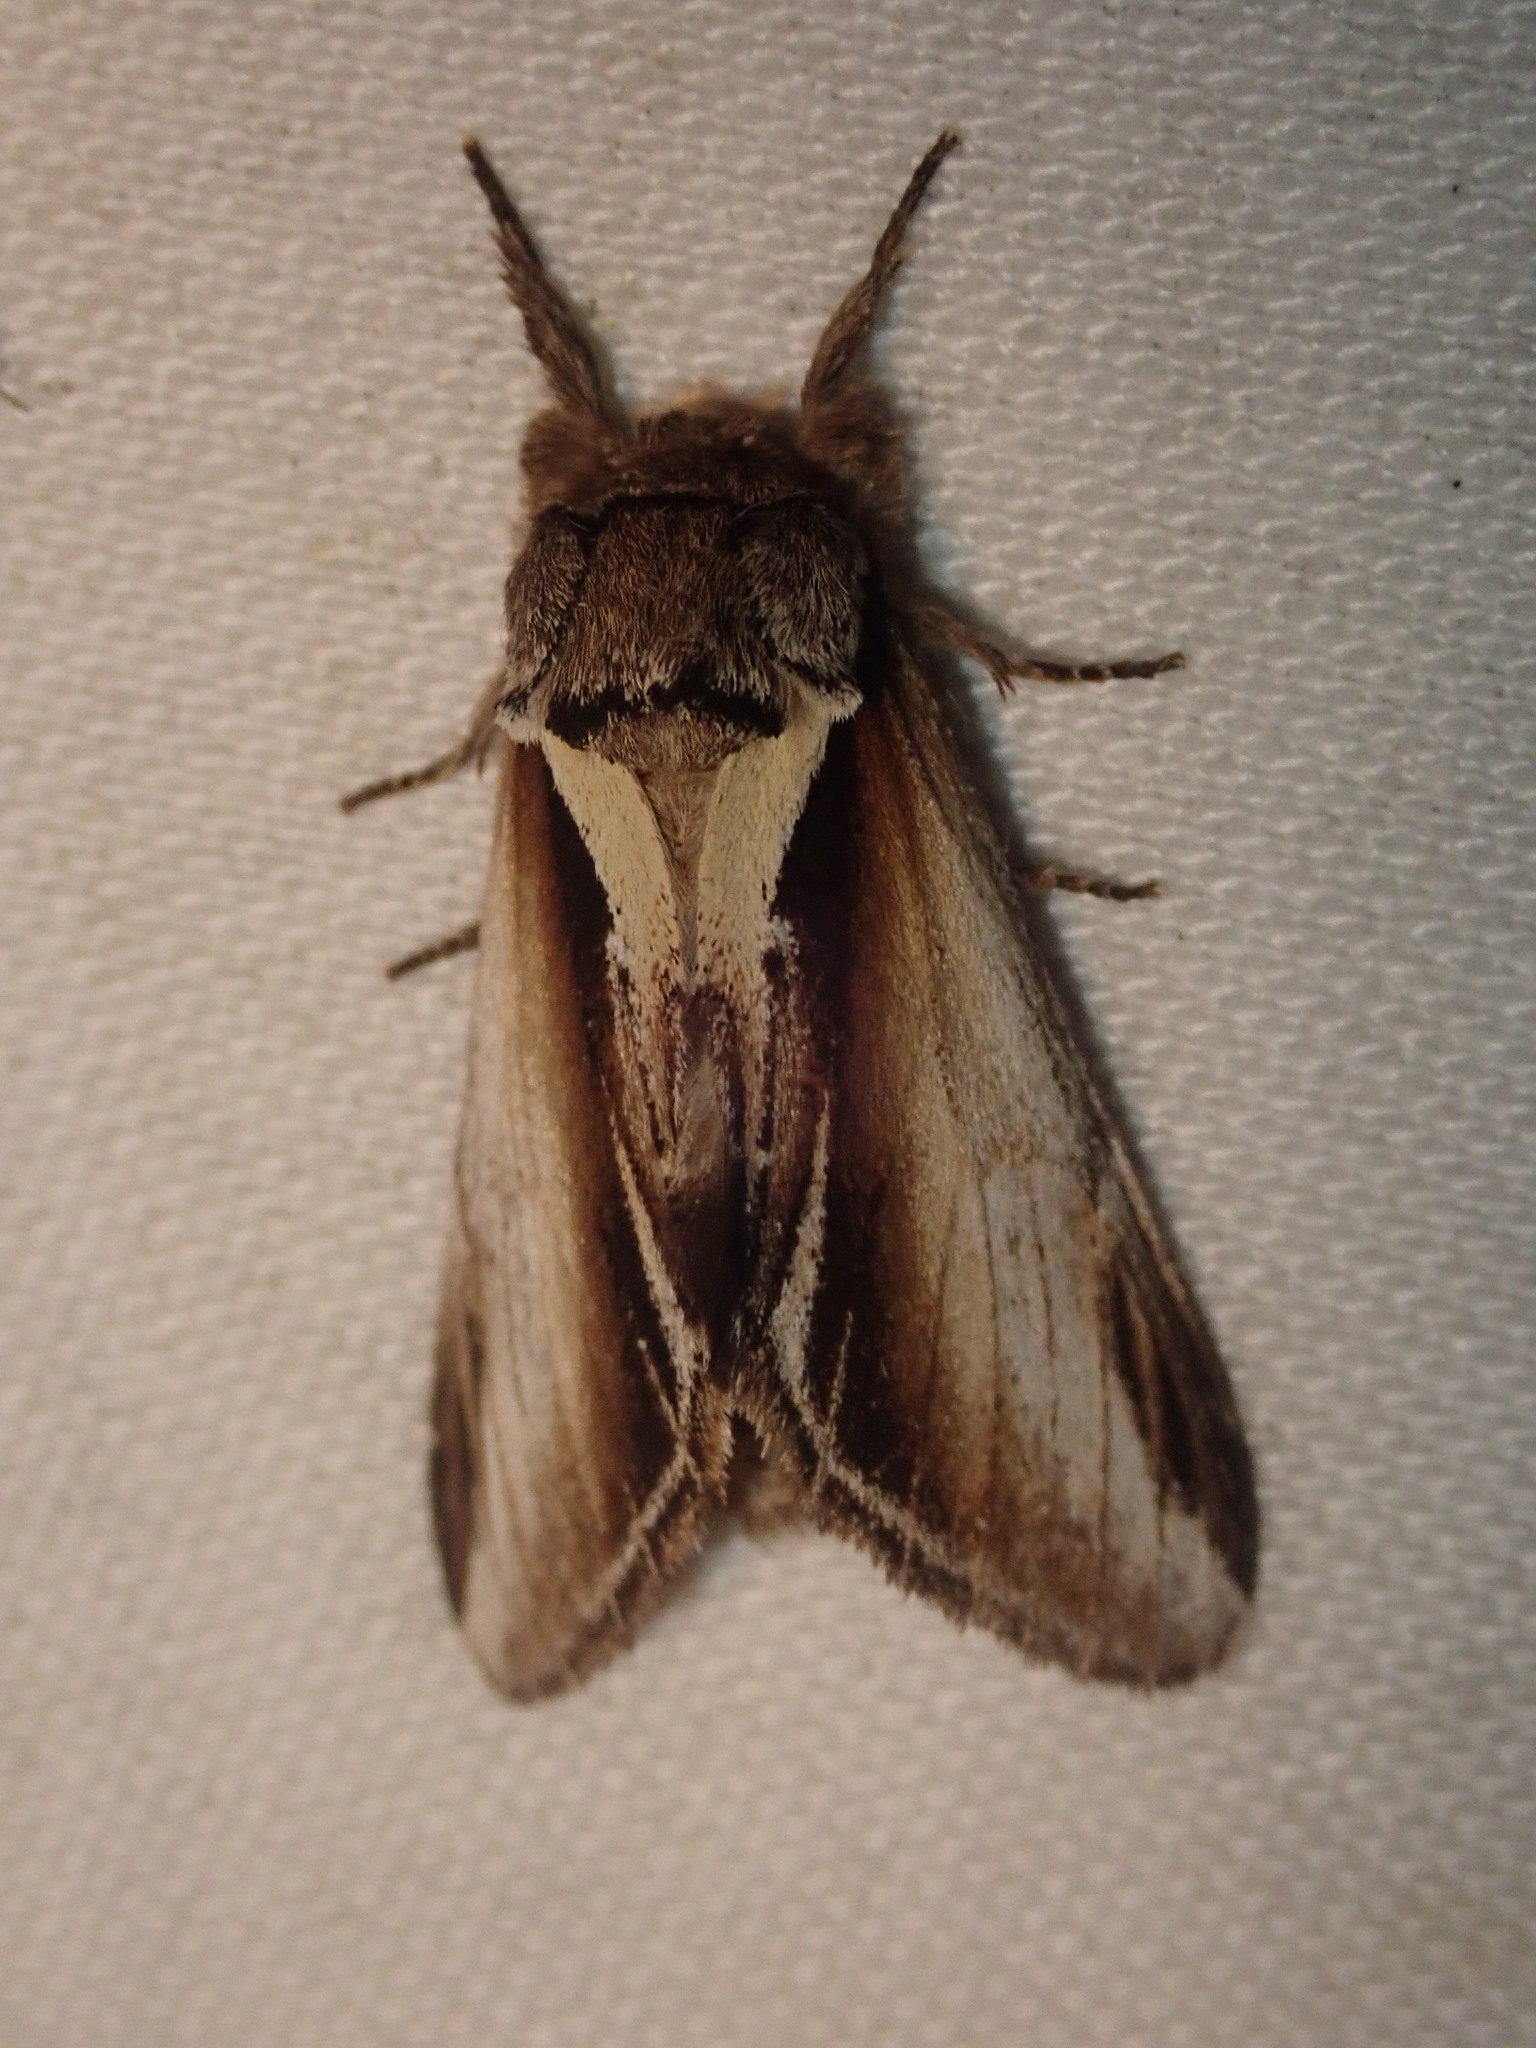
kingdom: Animalia
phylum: Arthropoda
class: Insecta
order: Lepidoptera
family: Notodontidae
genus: Pheosia
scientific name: Pheosia gnoma
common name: Lesser swallow prominent
